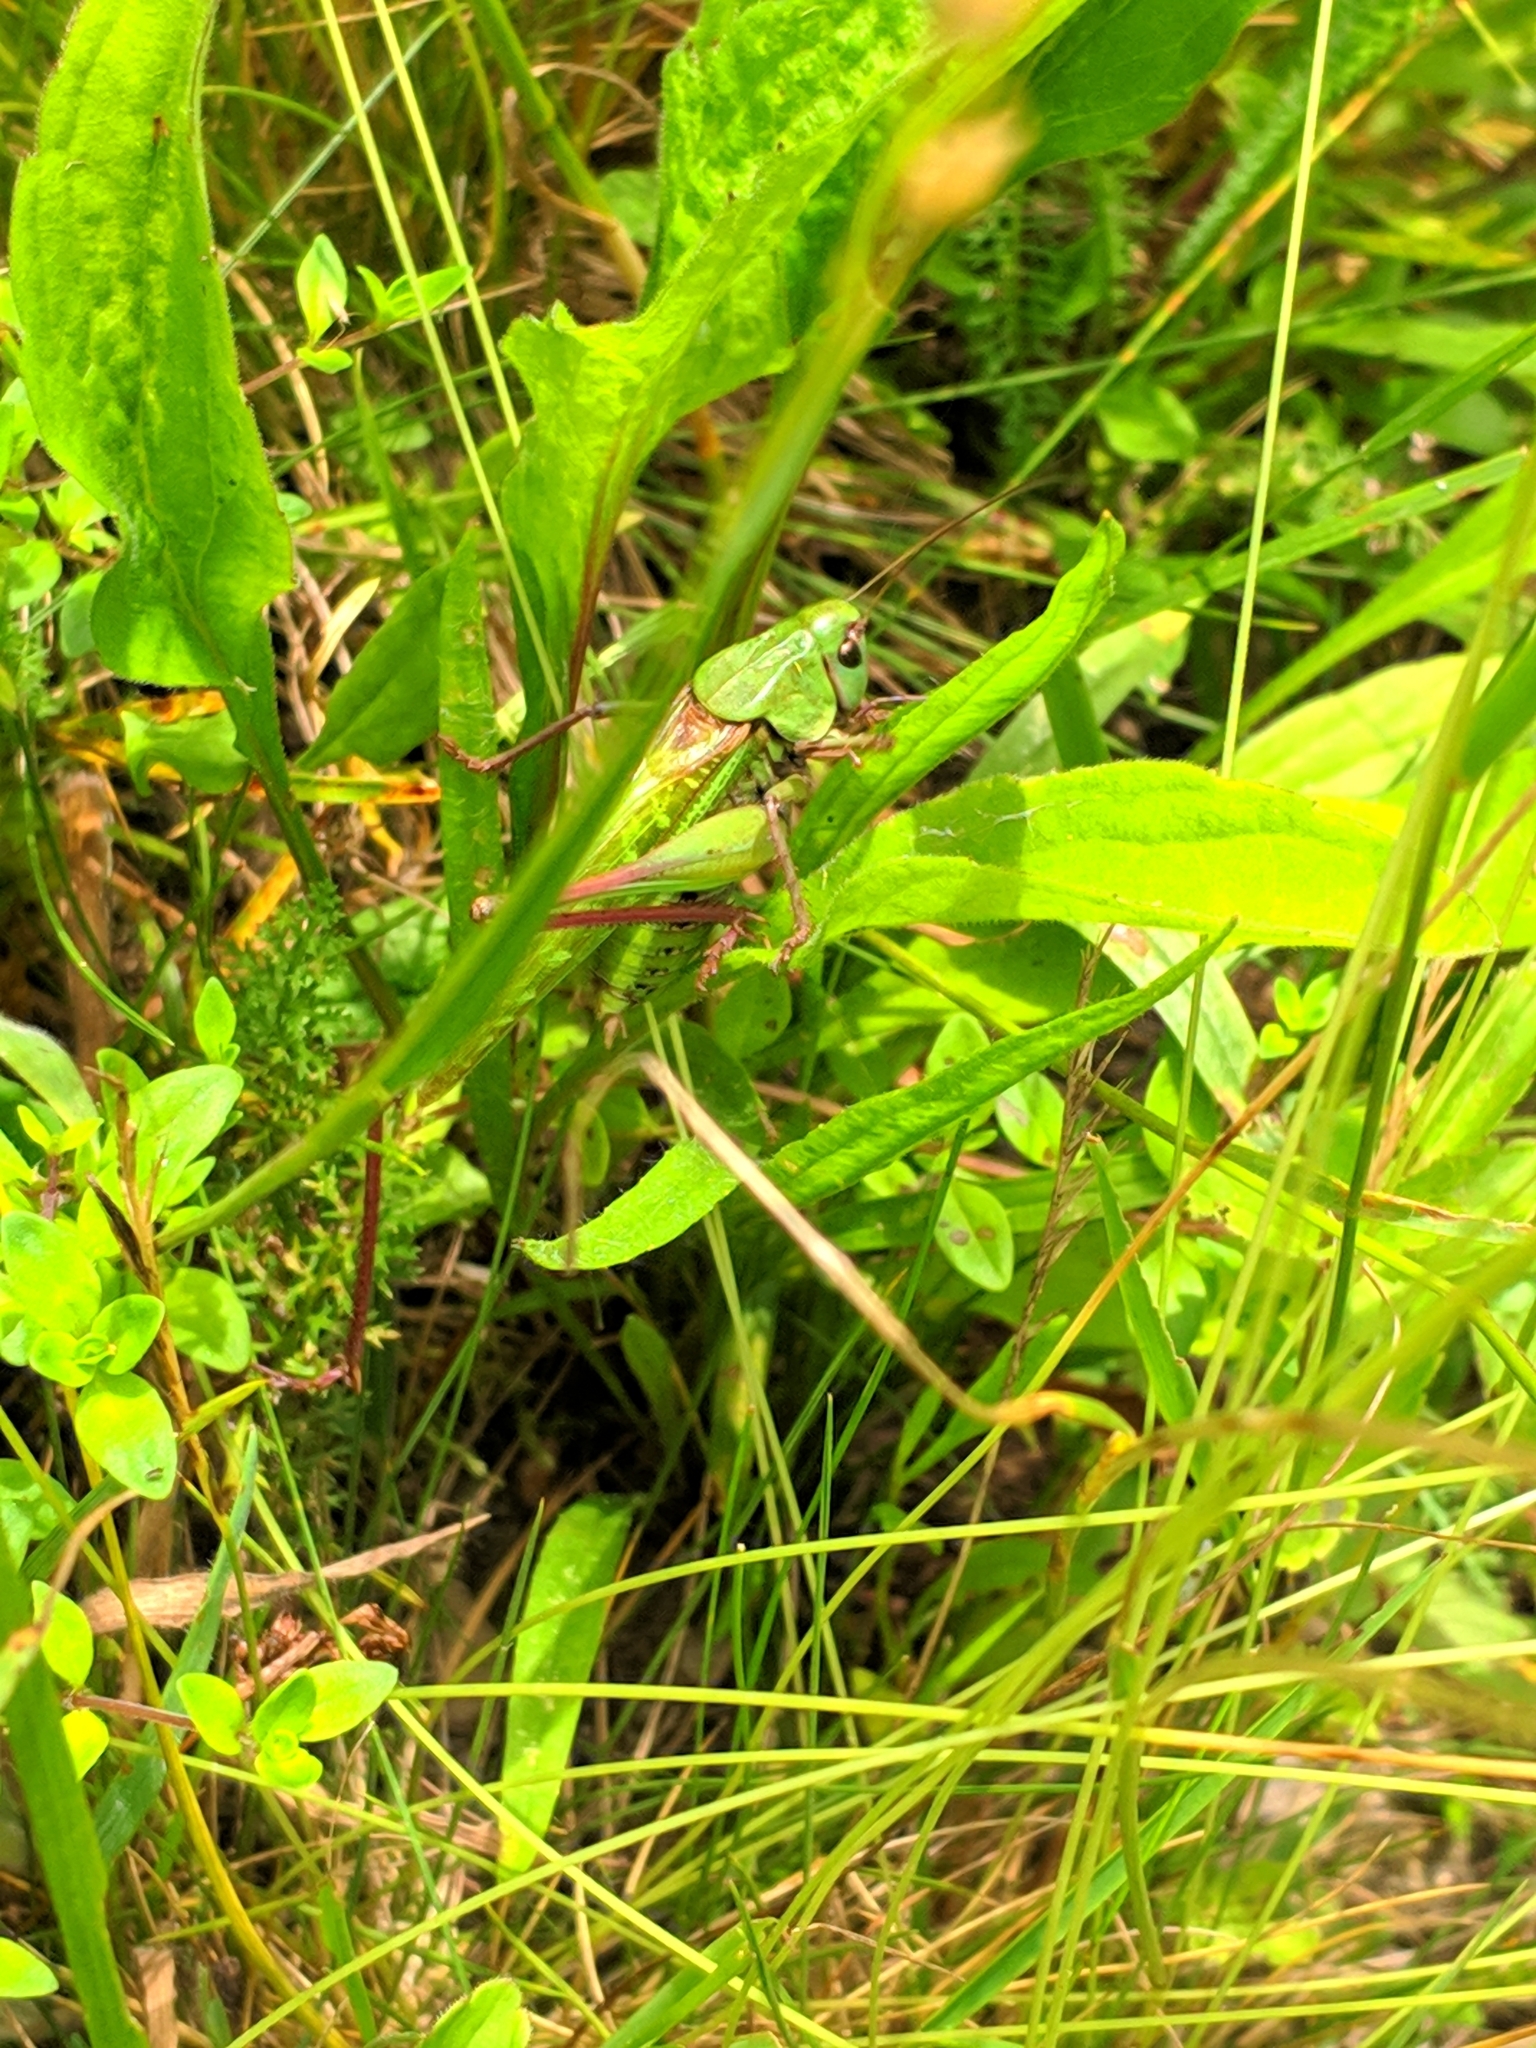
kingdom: Animalia
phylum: Arthropoda
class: Insecta
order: Orthoptera
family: Tettigoniidae
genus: Decticus
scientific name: Decticus verrucivorus
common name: Wart-biter
